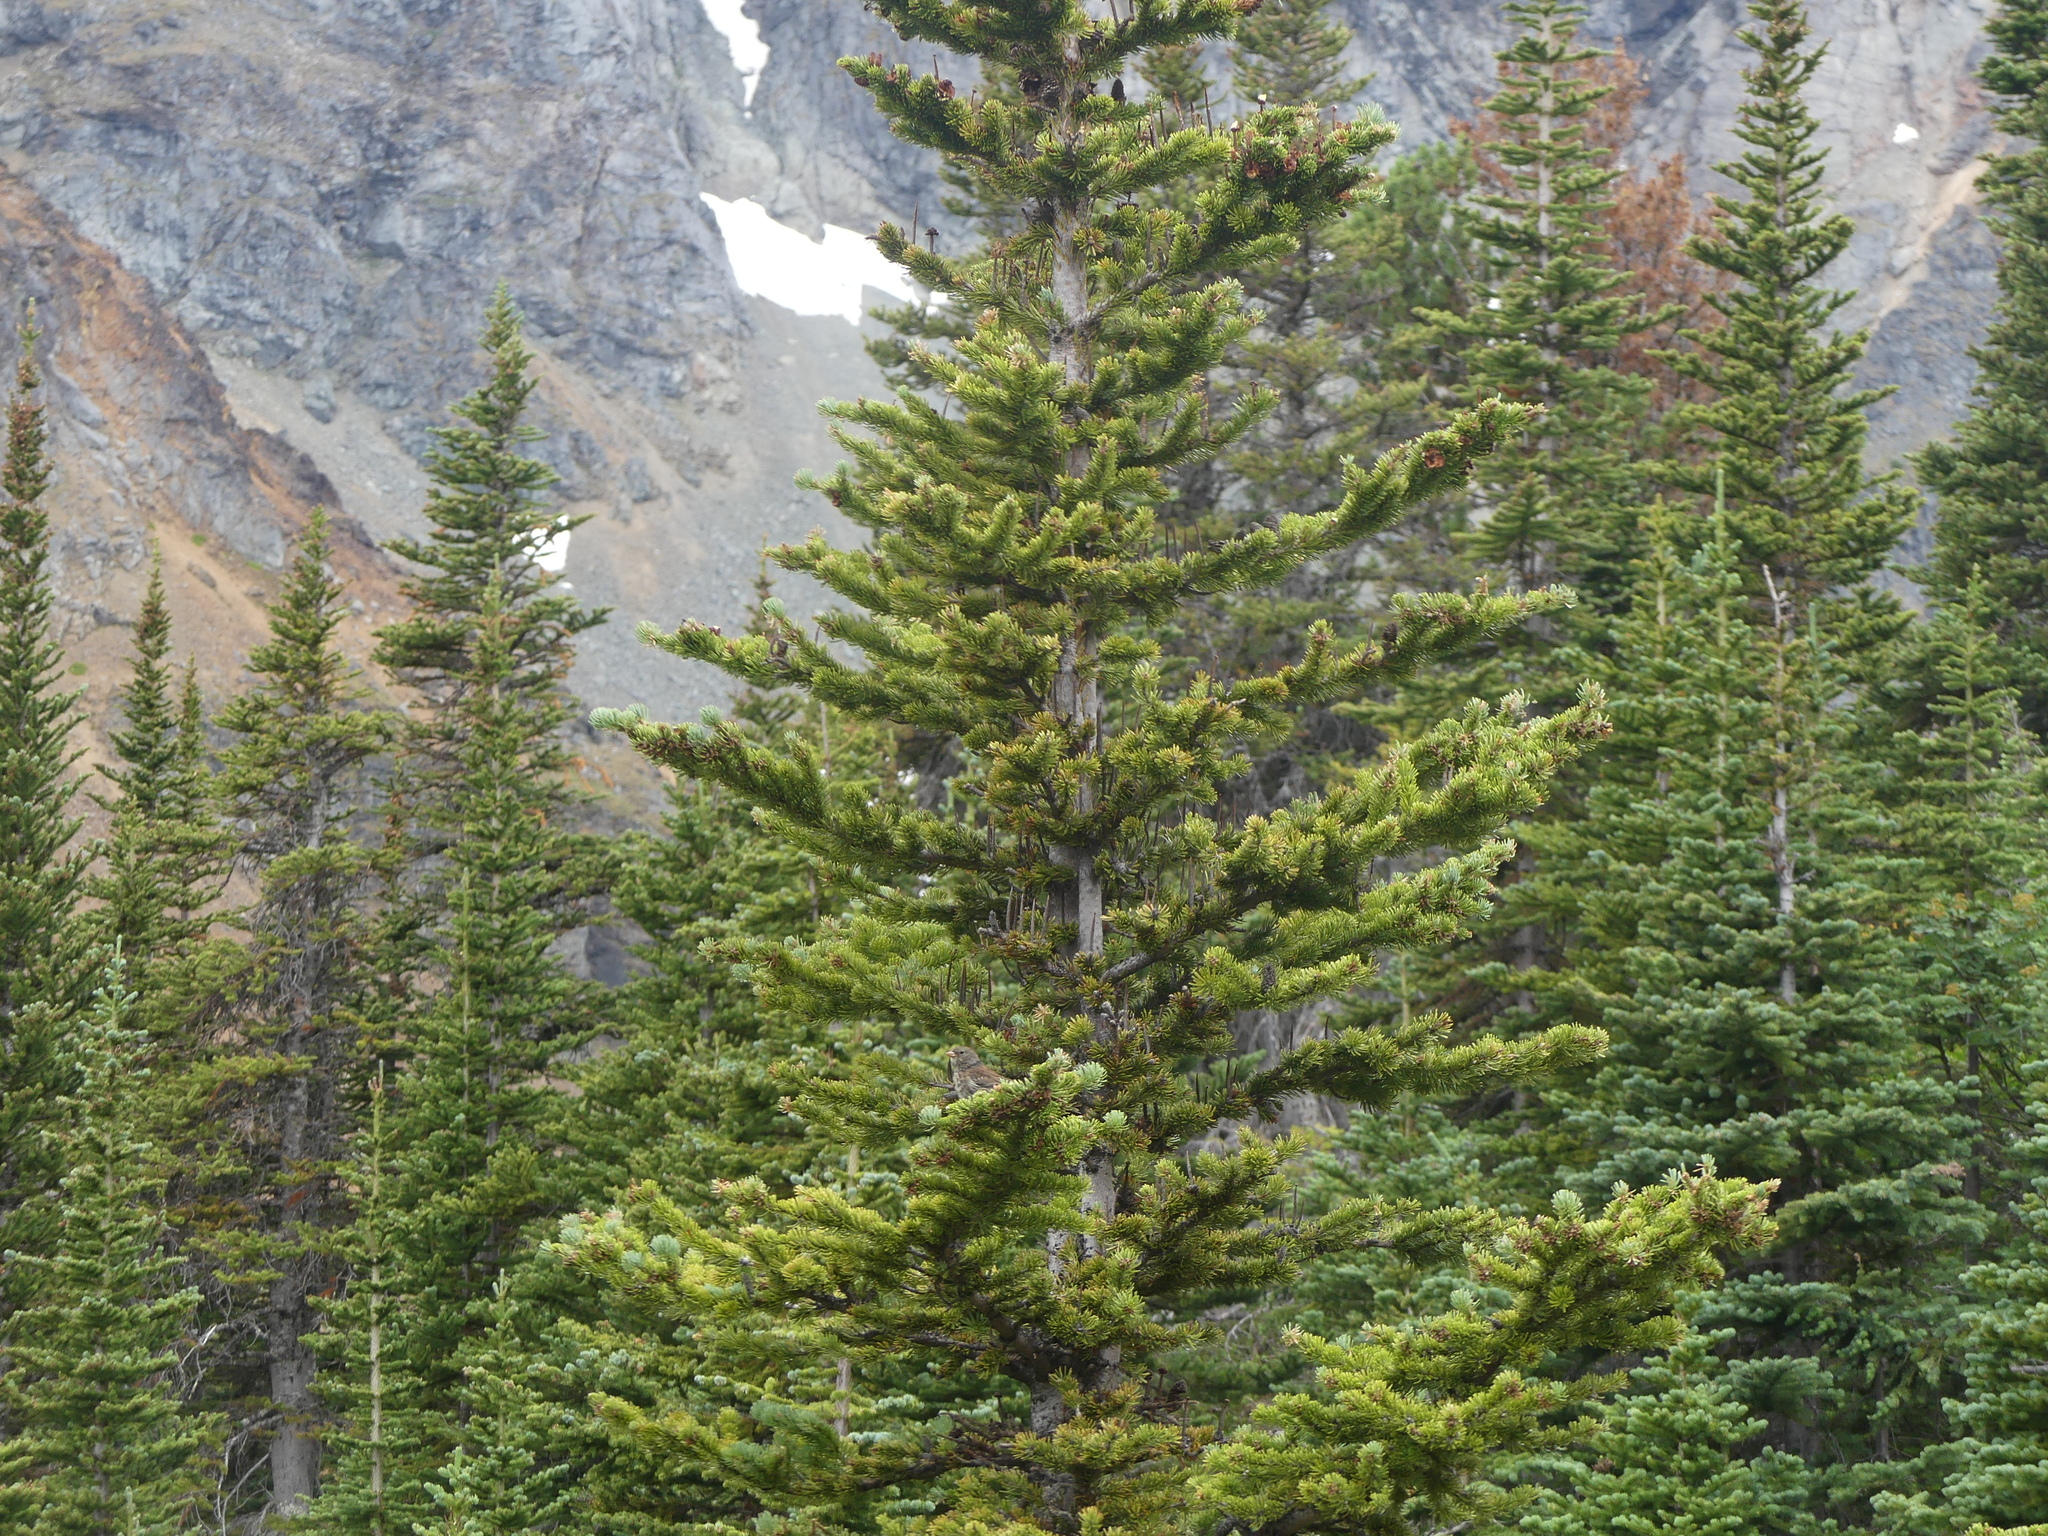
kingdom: Animalia
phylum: Chordata
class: Aves
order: Passeriformes
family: Passerellidae
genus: Junco
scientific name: Junco hyemalis
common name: Dark-eyed junco
